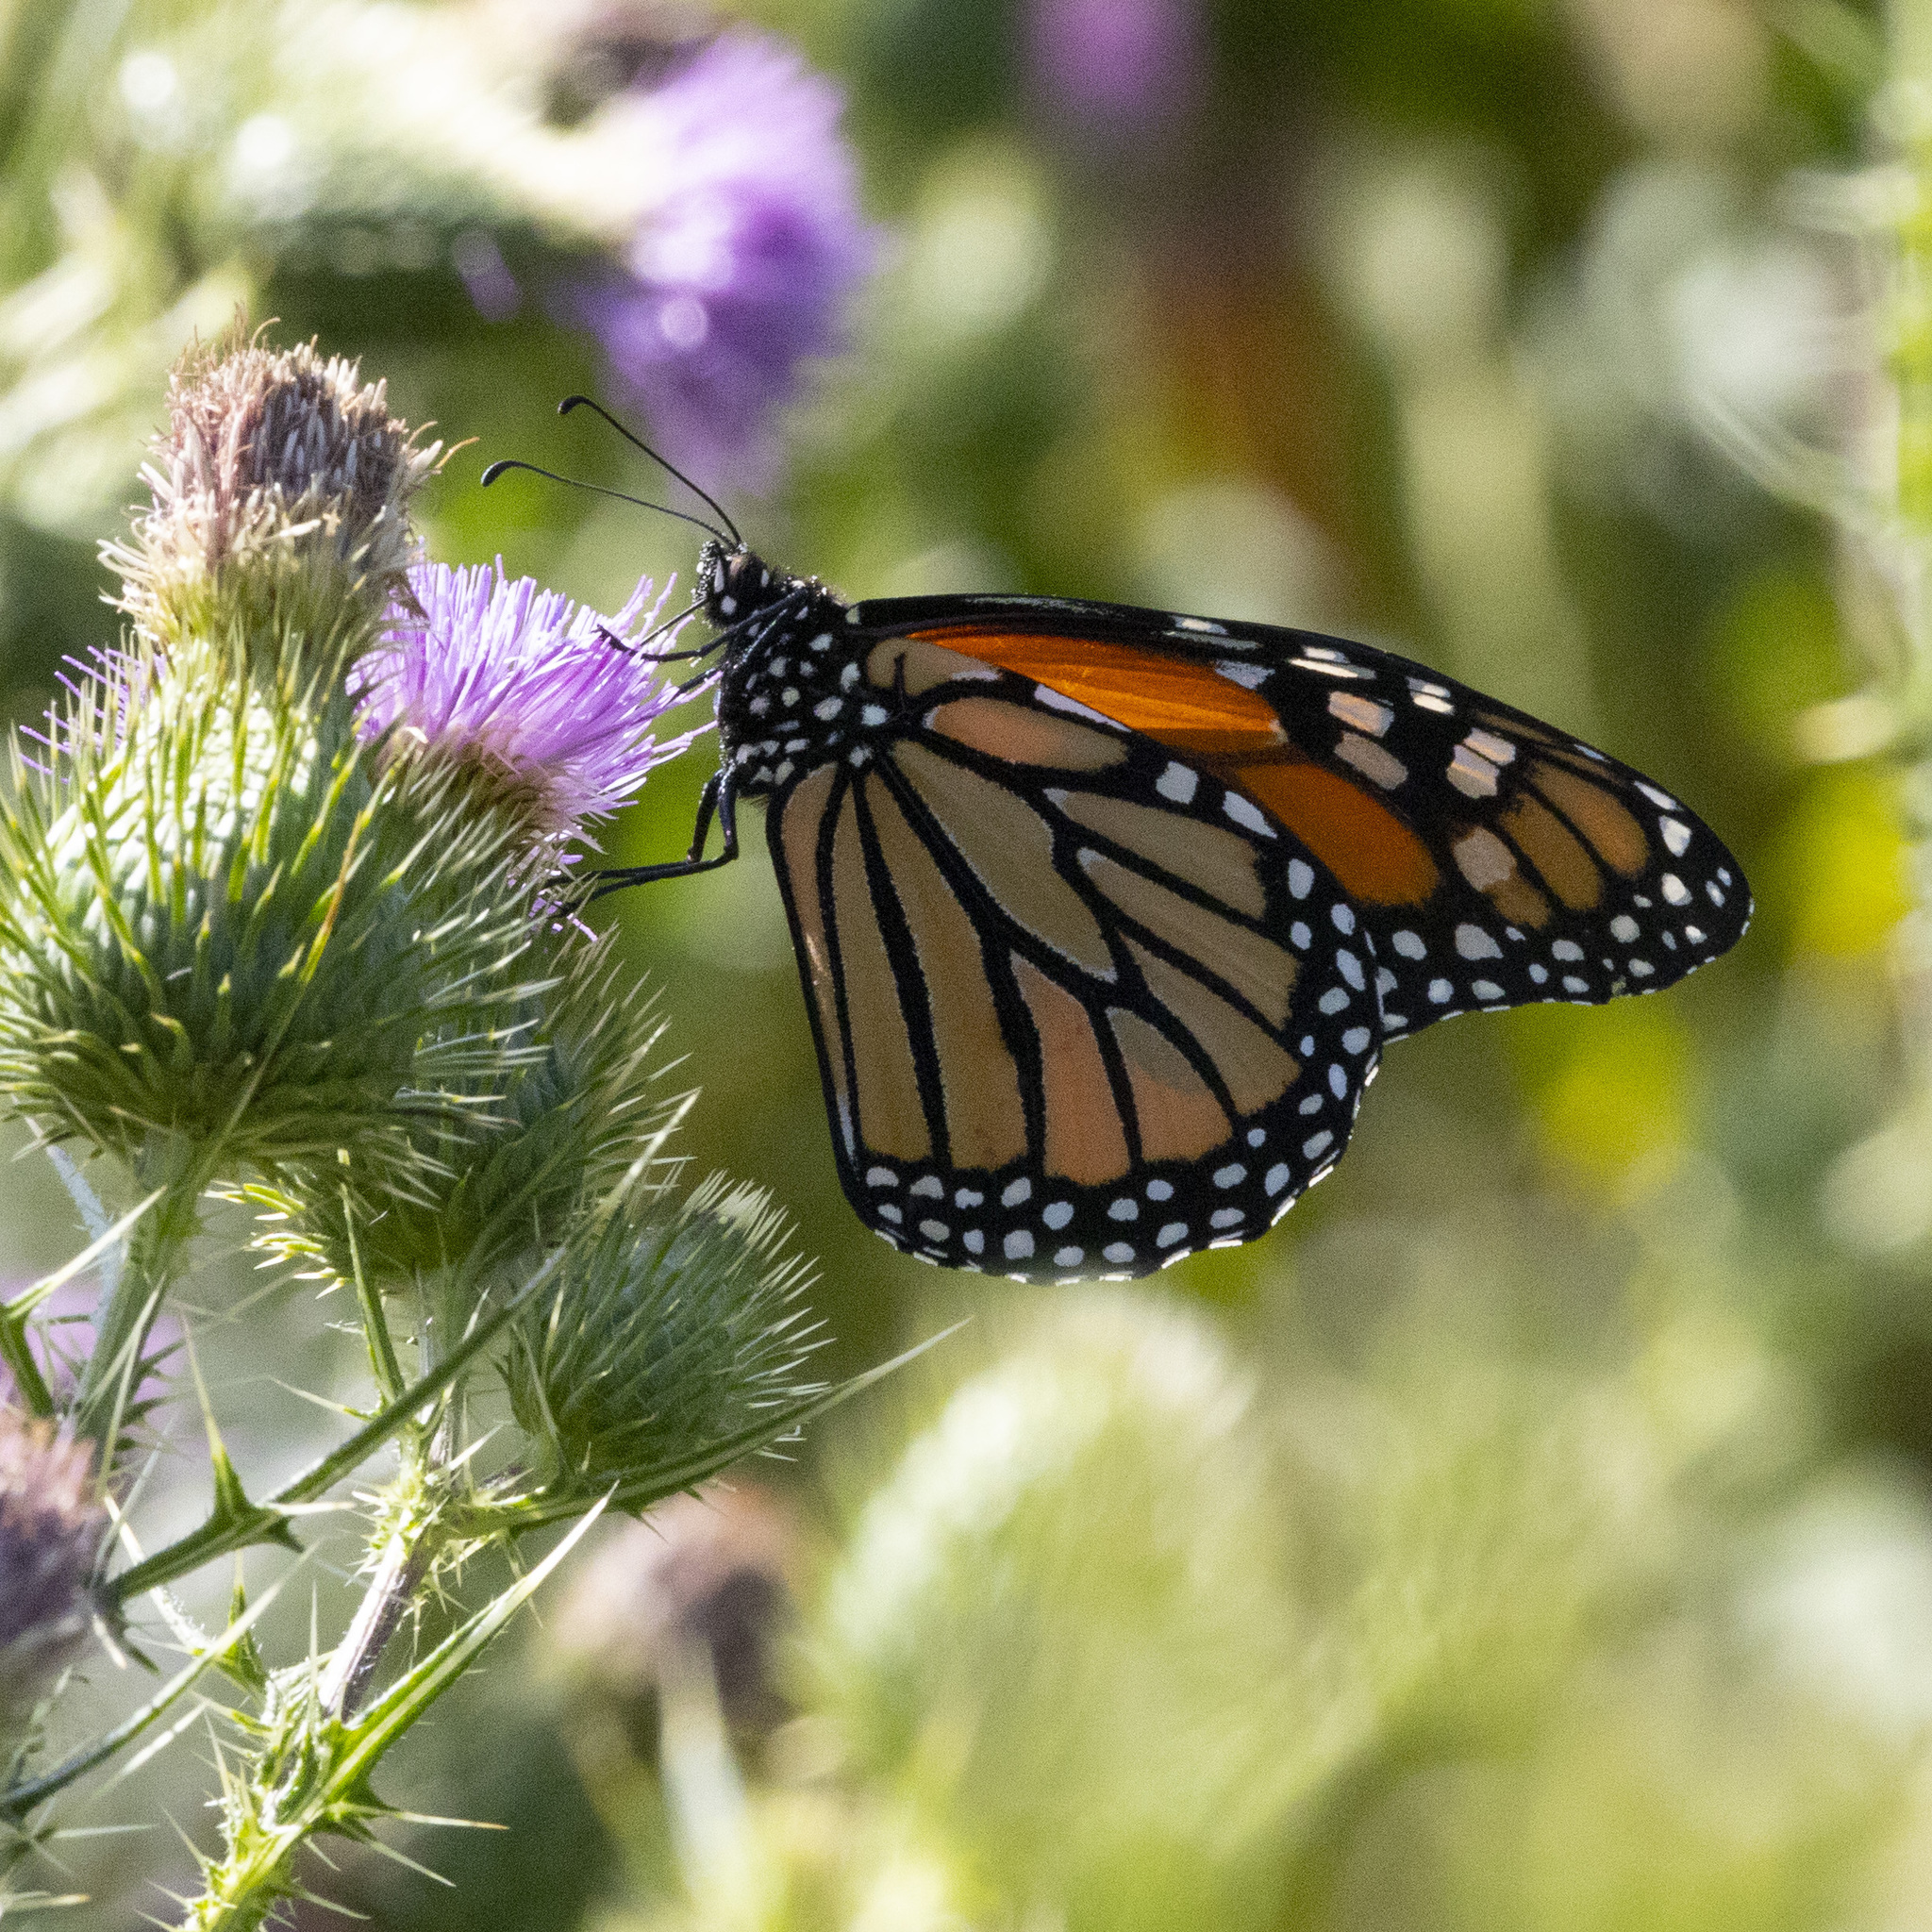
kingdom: Animalia
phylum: Arthropoda
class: Insecta
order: Lepidoptera
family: Nymphalidae
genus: Danaus
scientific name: Danaus plexippus
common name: Monarch
